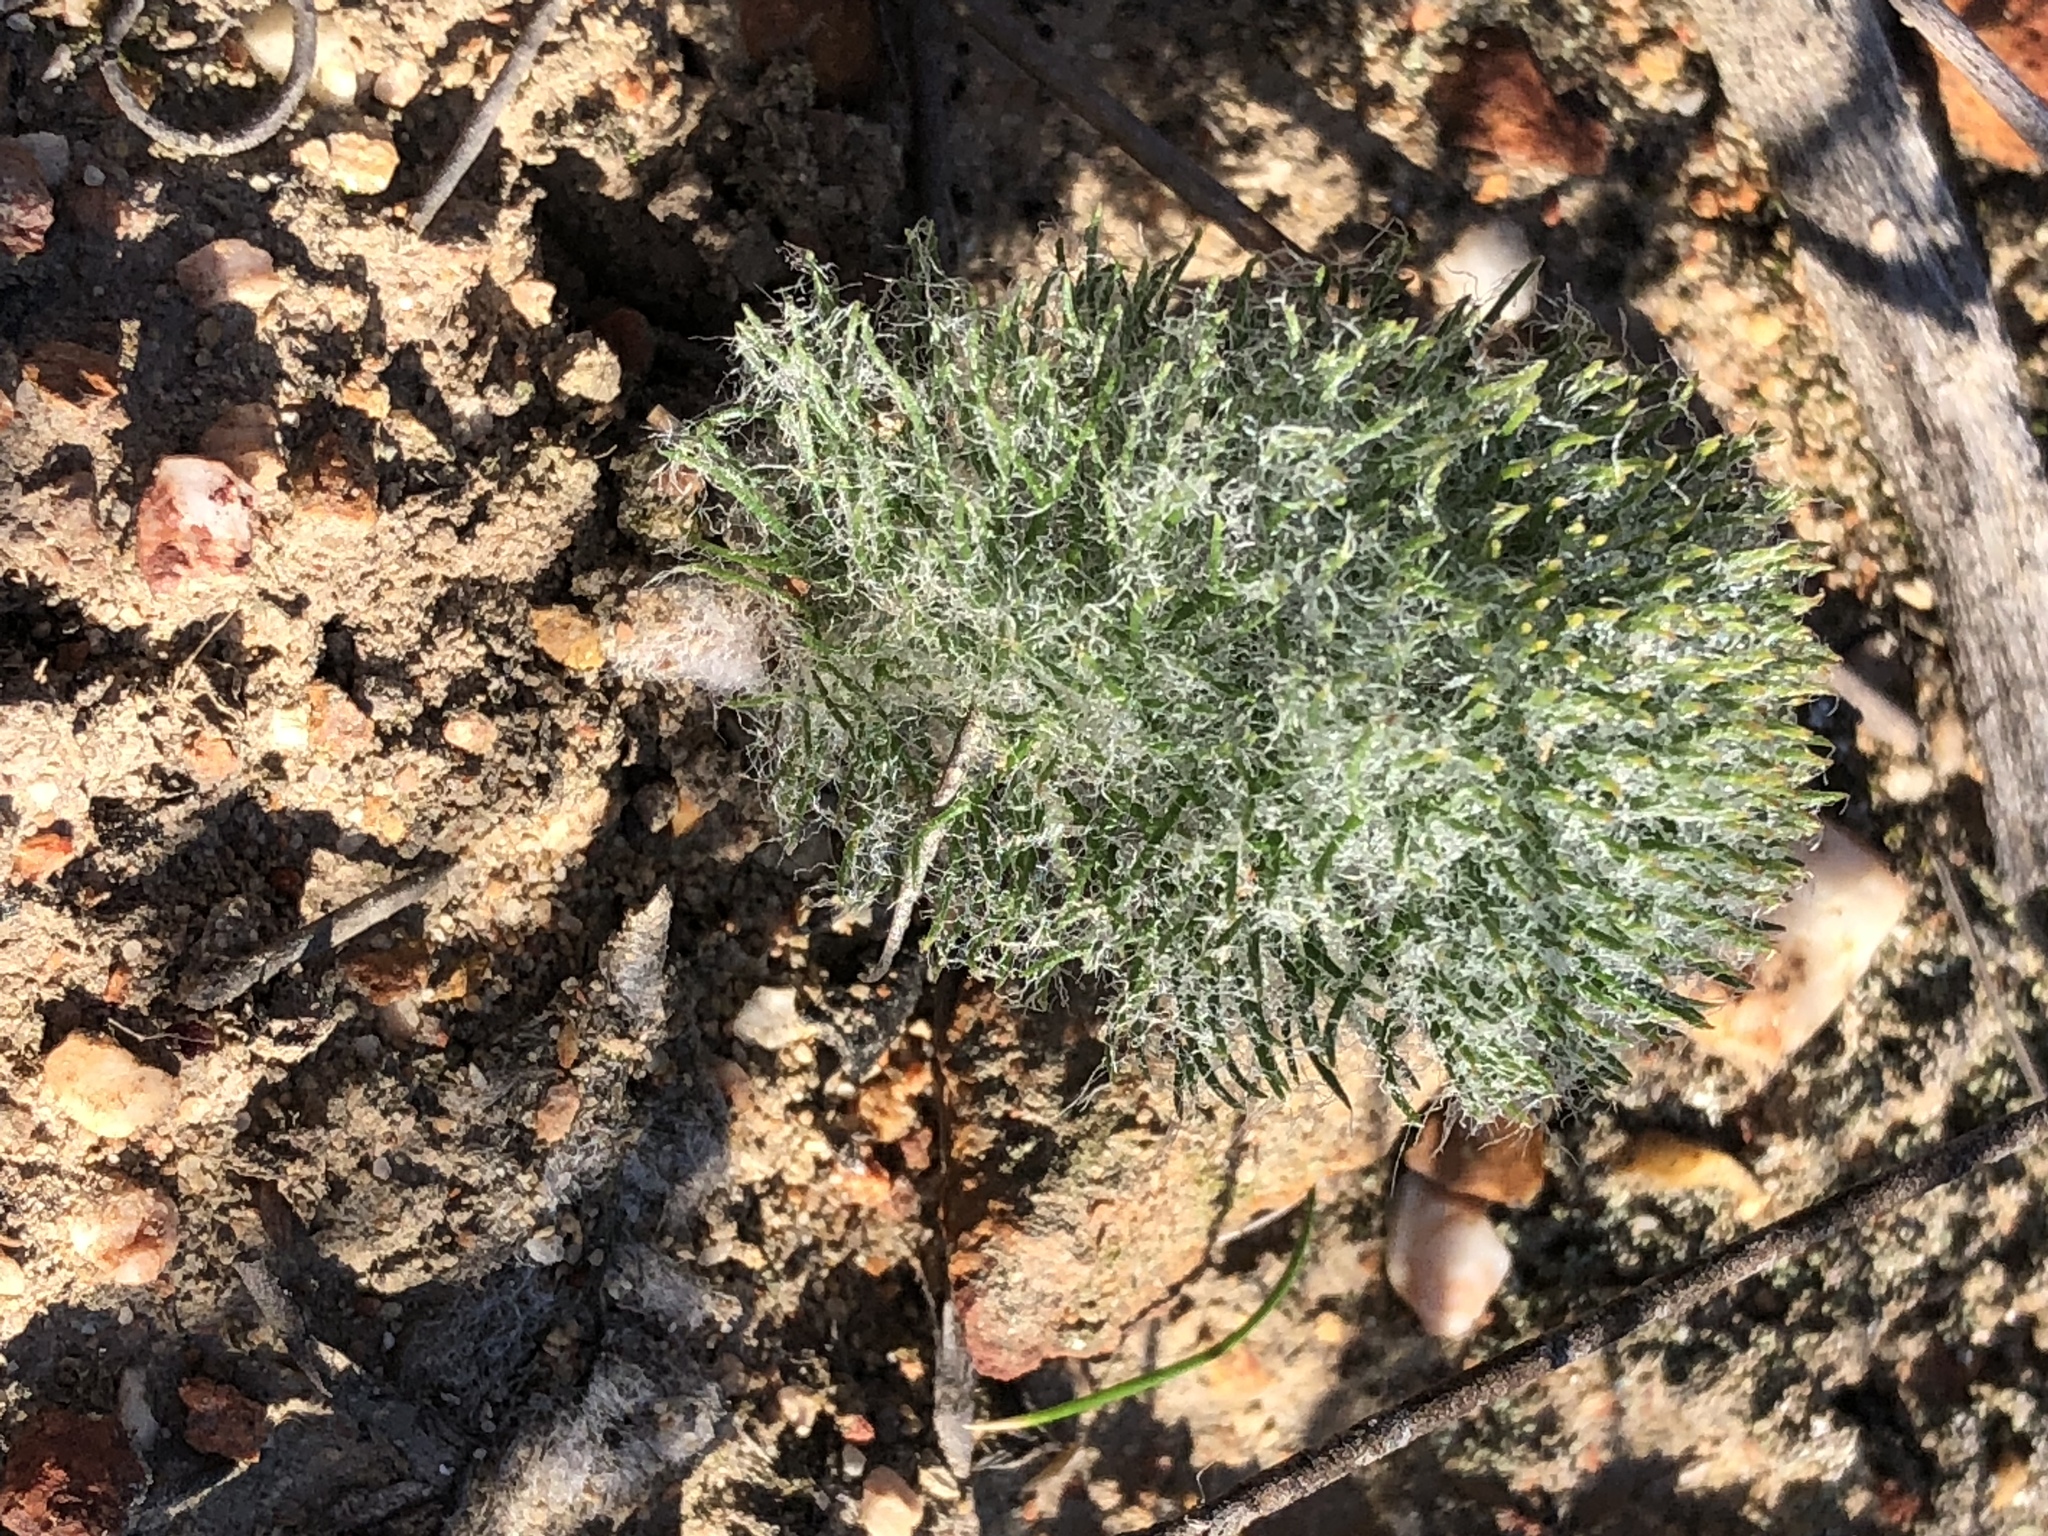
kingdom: Plantae
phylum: Tracheophyta
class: Liliopsida
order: Asparagales
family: Asparagaceae
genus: Eriospermum
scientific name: Eriospermum paradoxum
